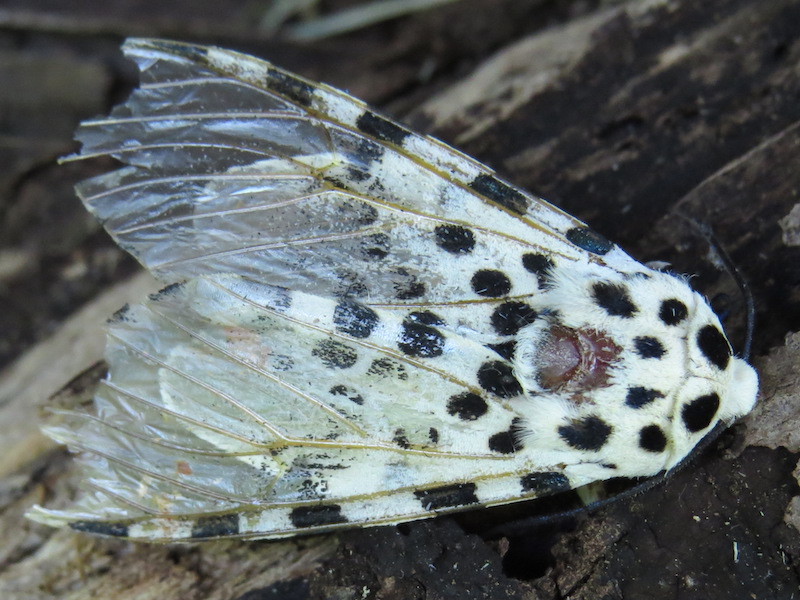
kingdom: Animalia
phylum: Arthropoda
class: Insecta
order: Lepidoptera
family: Erebidae
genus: Hypercompe
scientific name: Hypercompe scribonia
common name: Giant leopard moth
